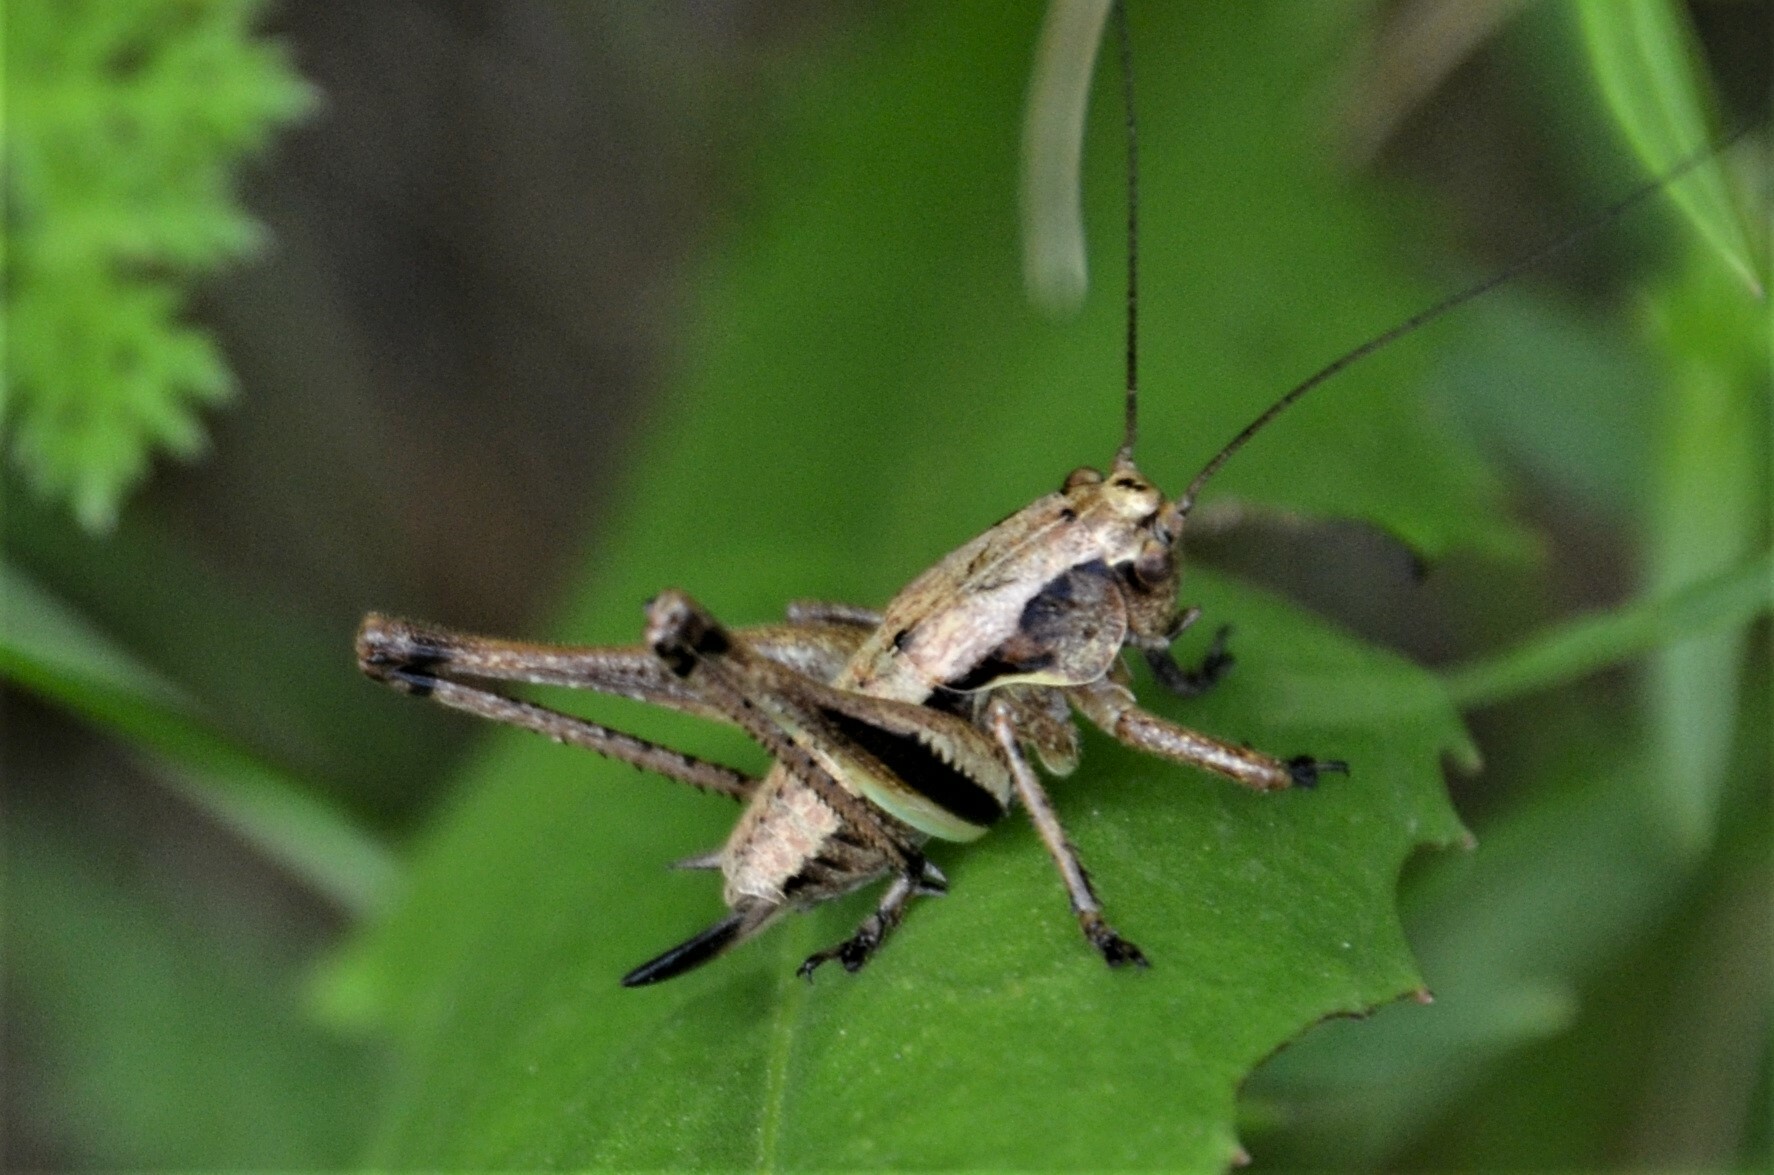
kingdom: Animalia
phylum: Arthropoda
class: Insecta
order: Orthoptera
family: Tettigoniidae
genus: Pholidoptera
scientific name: Pholidoptera griseoaptera
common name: Dark bush-cricket
